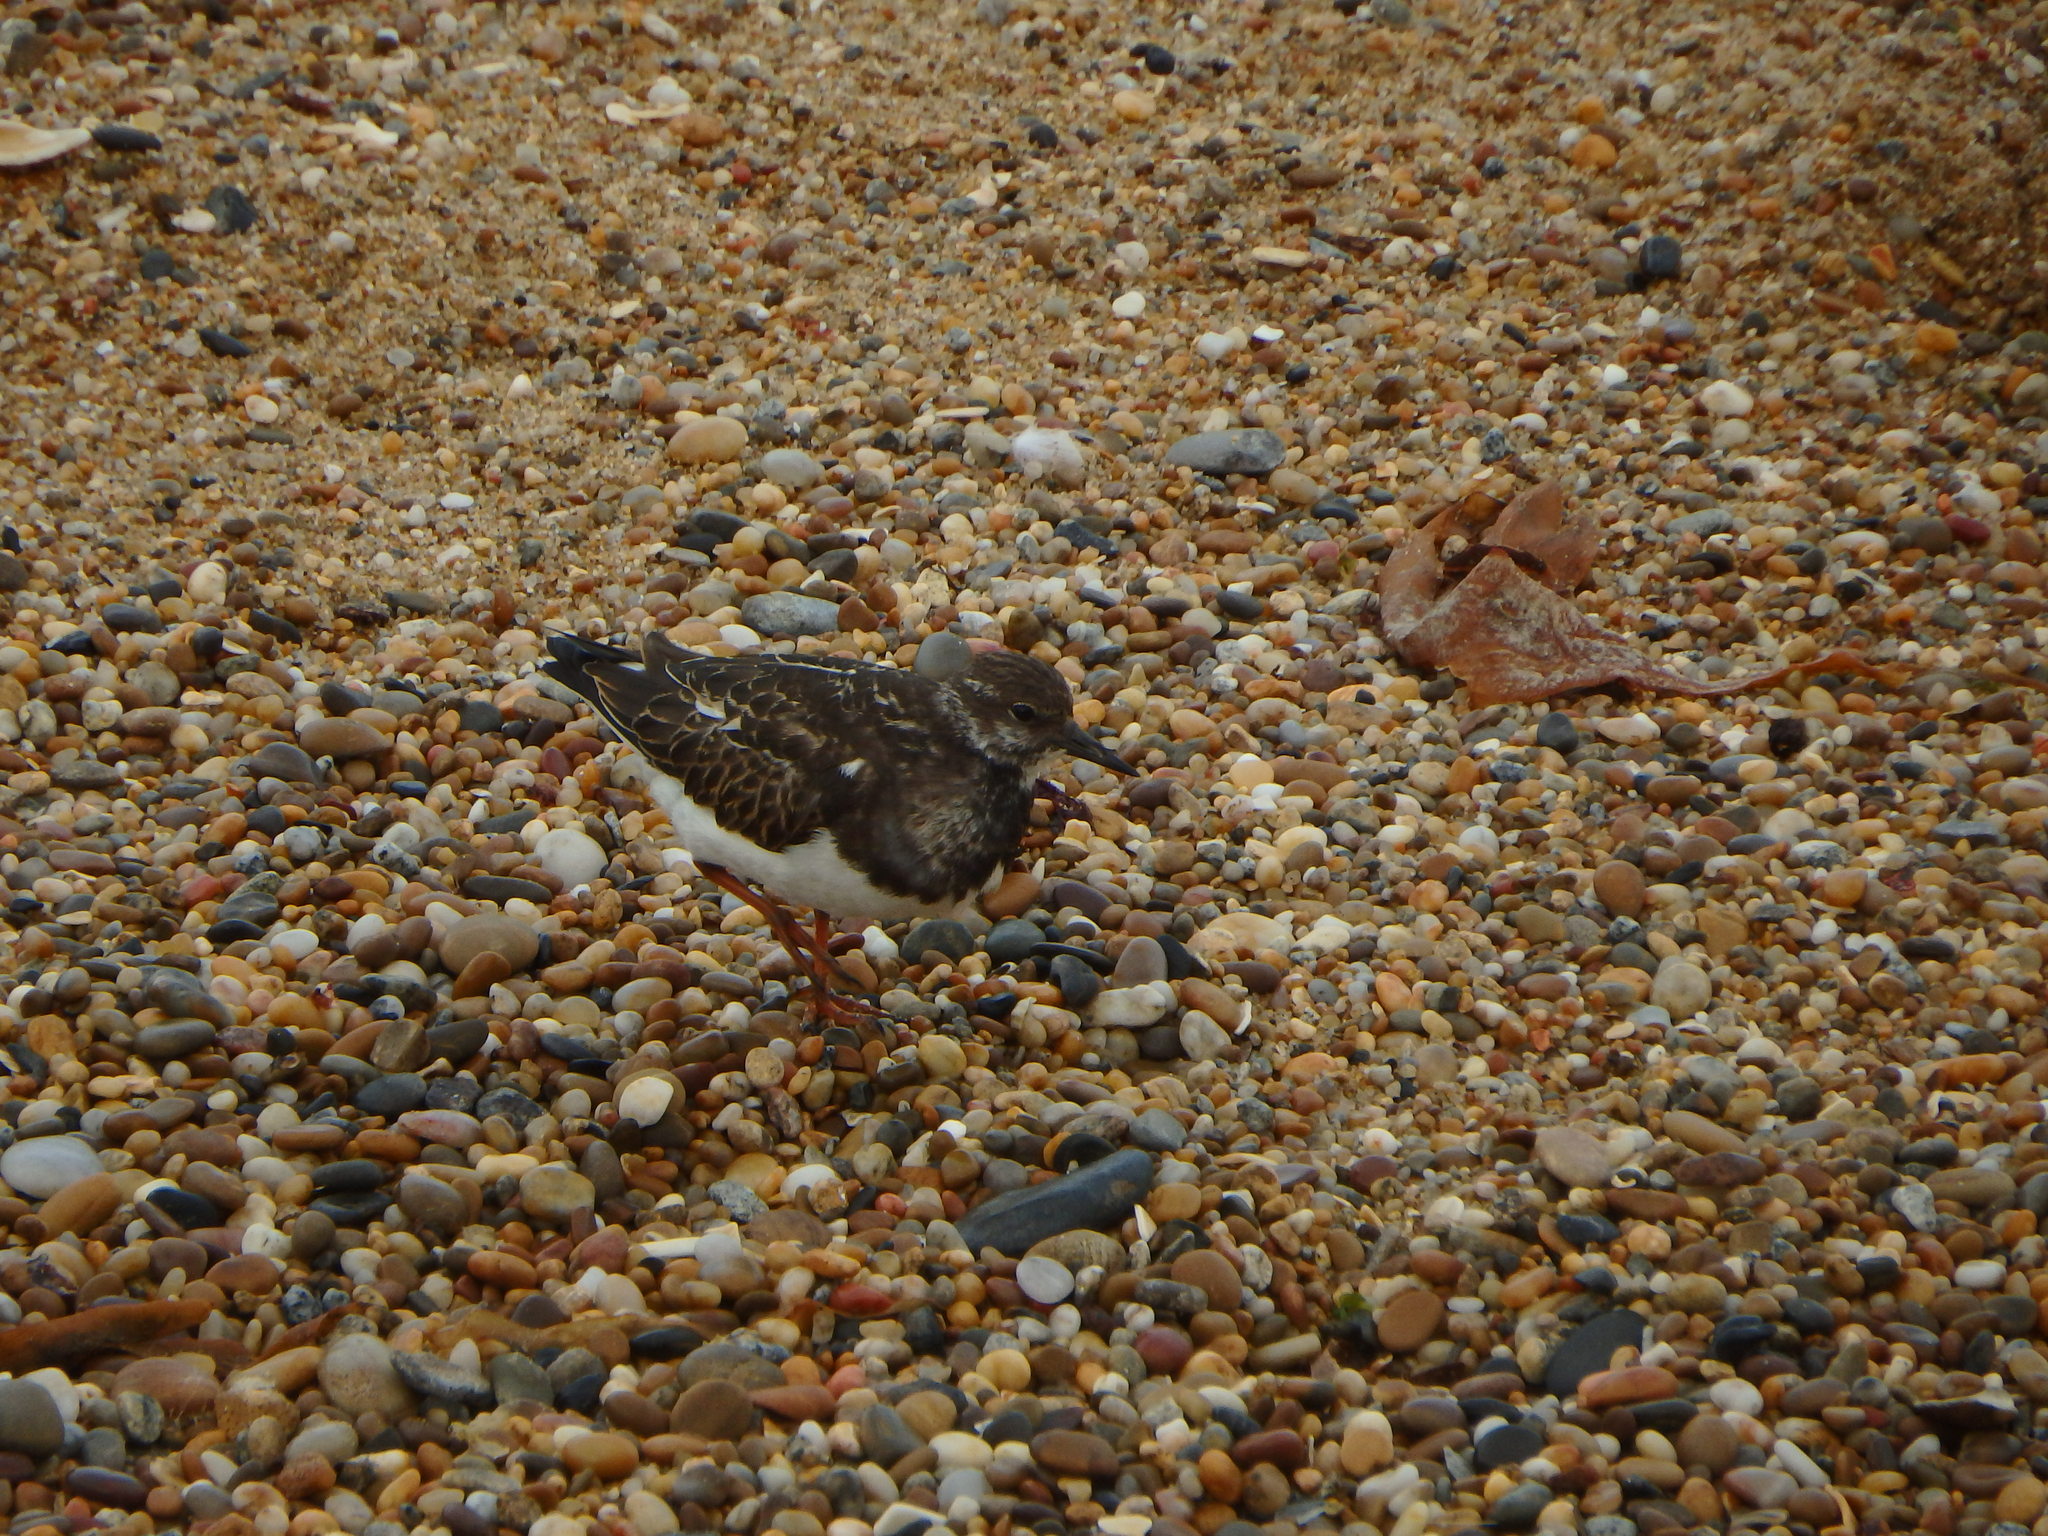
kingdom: Animalia
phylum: Chordata
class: Aves
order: Charadriiformes
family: Scolopacidae
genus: Arenaria
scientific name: Arenaria interpres
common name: Ruddy turnstone
